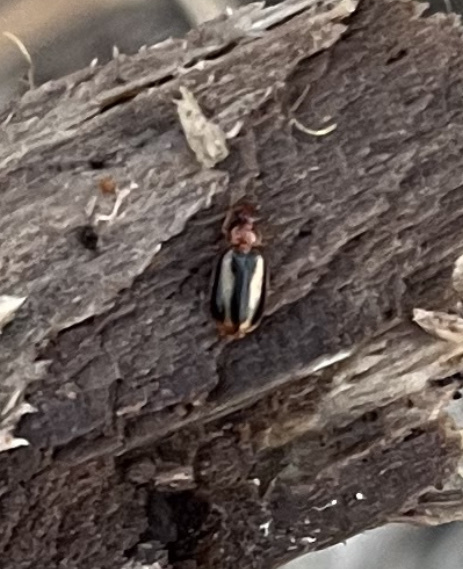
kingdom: Animalia
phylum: Arthropoda
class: Insecta
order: Coleoptera
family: Carabidae
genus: Lebia
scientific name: Lebia solea
